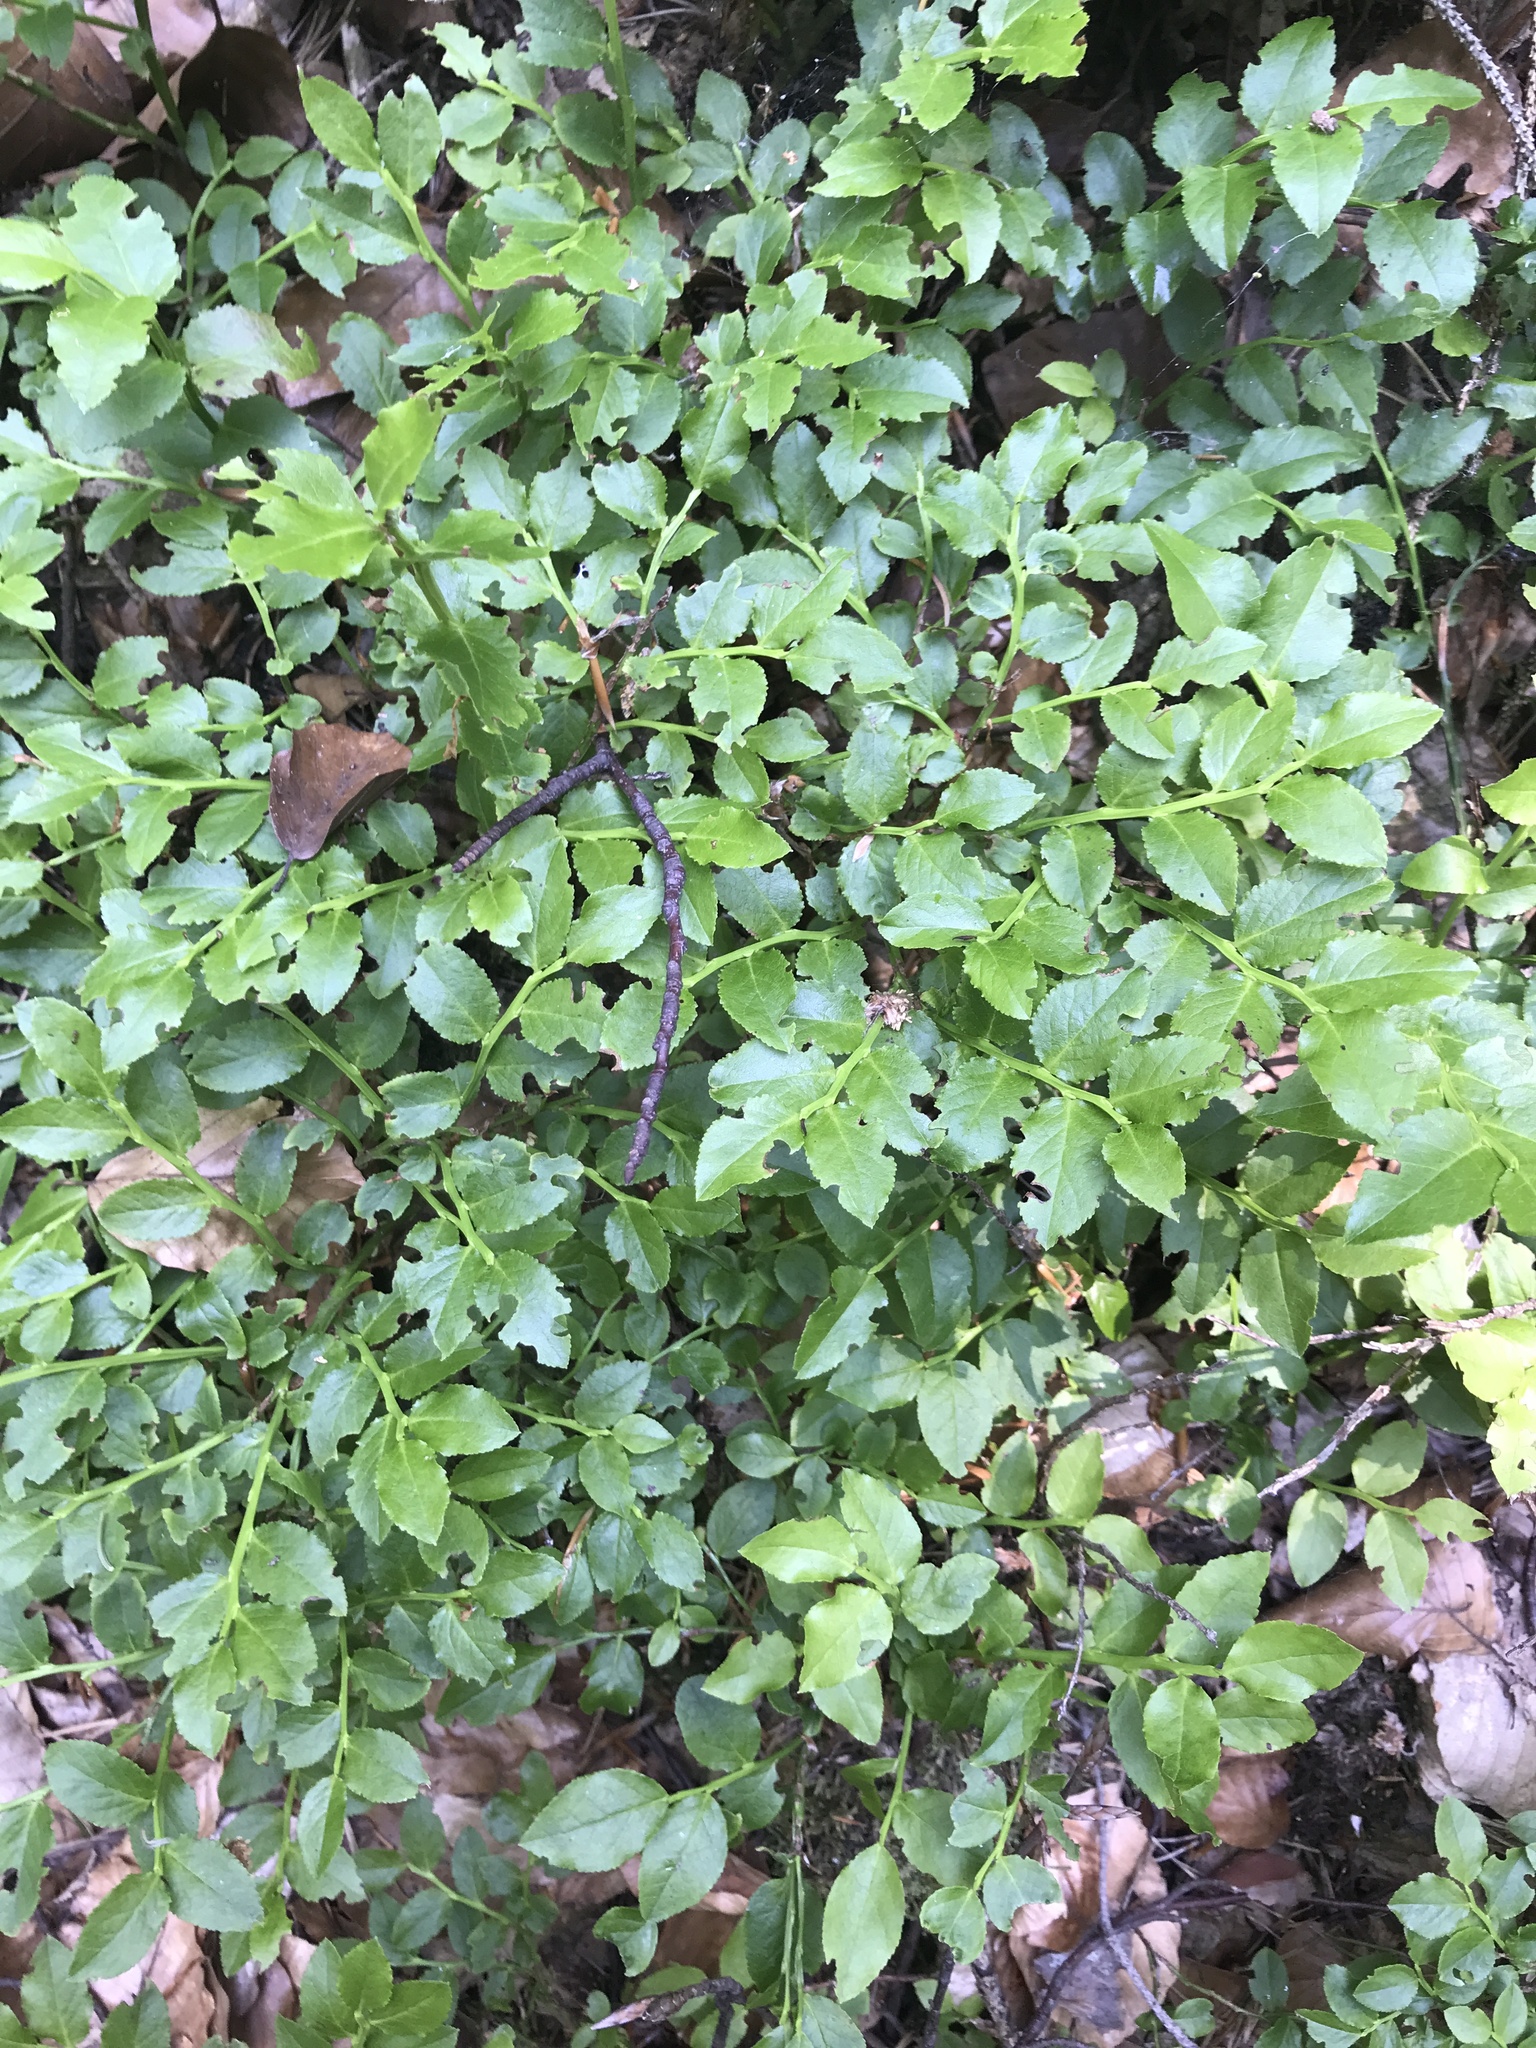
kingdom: Plantae
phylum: Tracheophyta
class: Magnoliopsida
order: Ericales
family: Ericaceae
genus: Vaccinium
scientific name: Vaccinium myrtillus
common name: Bilberry
